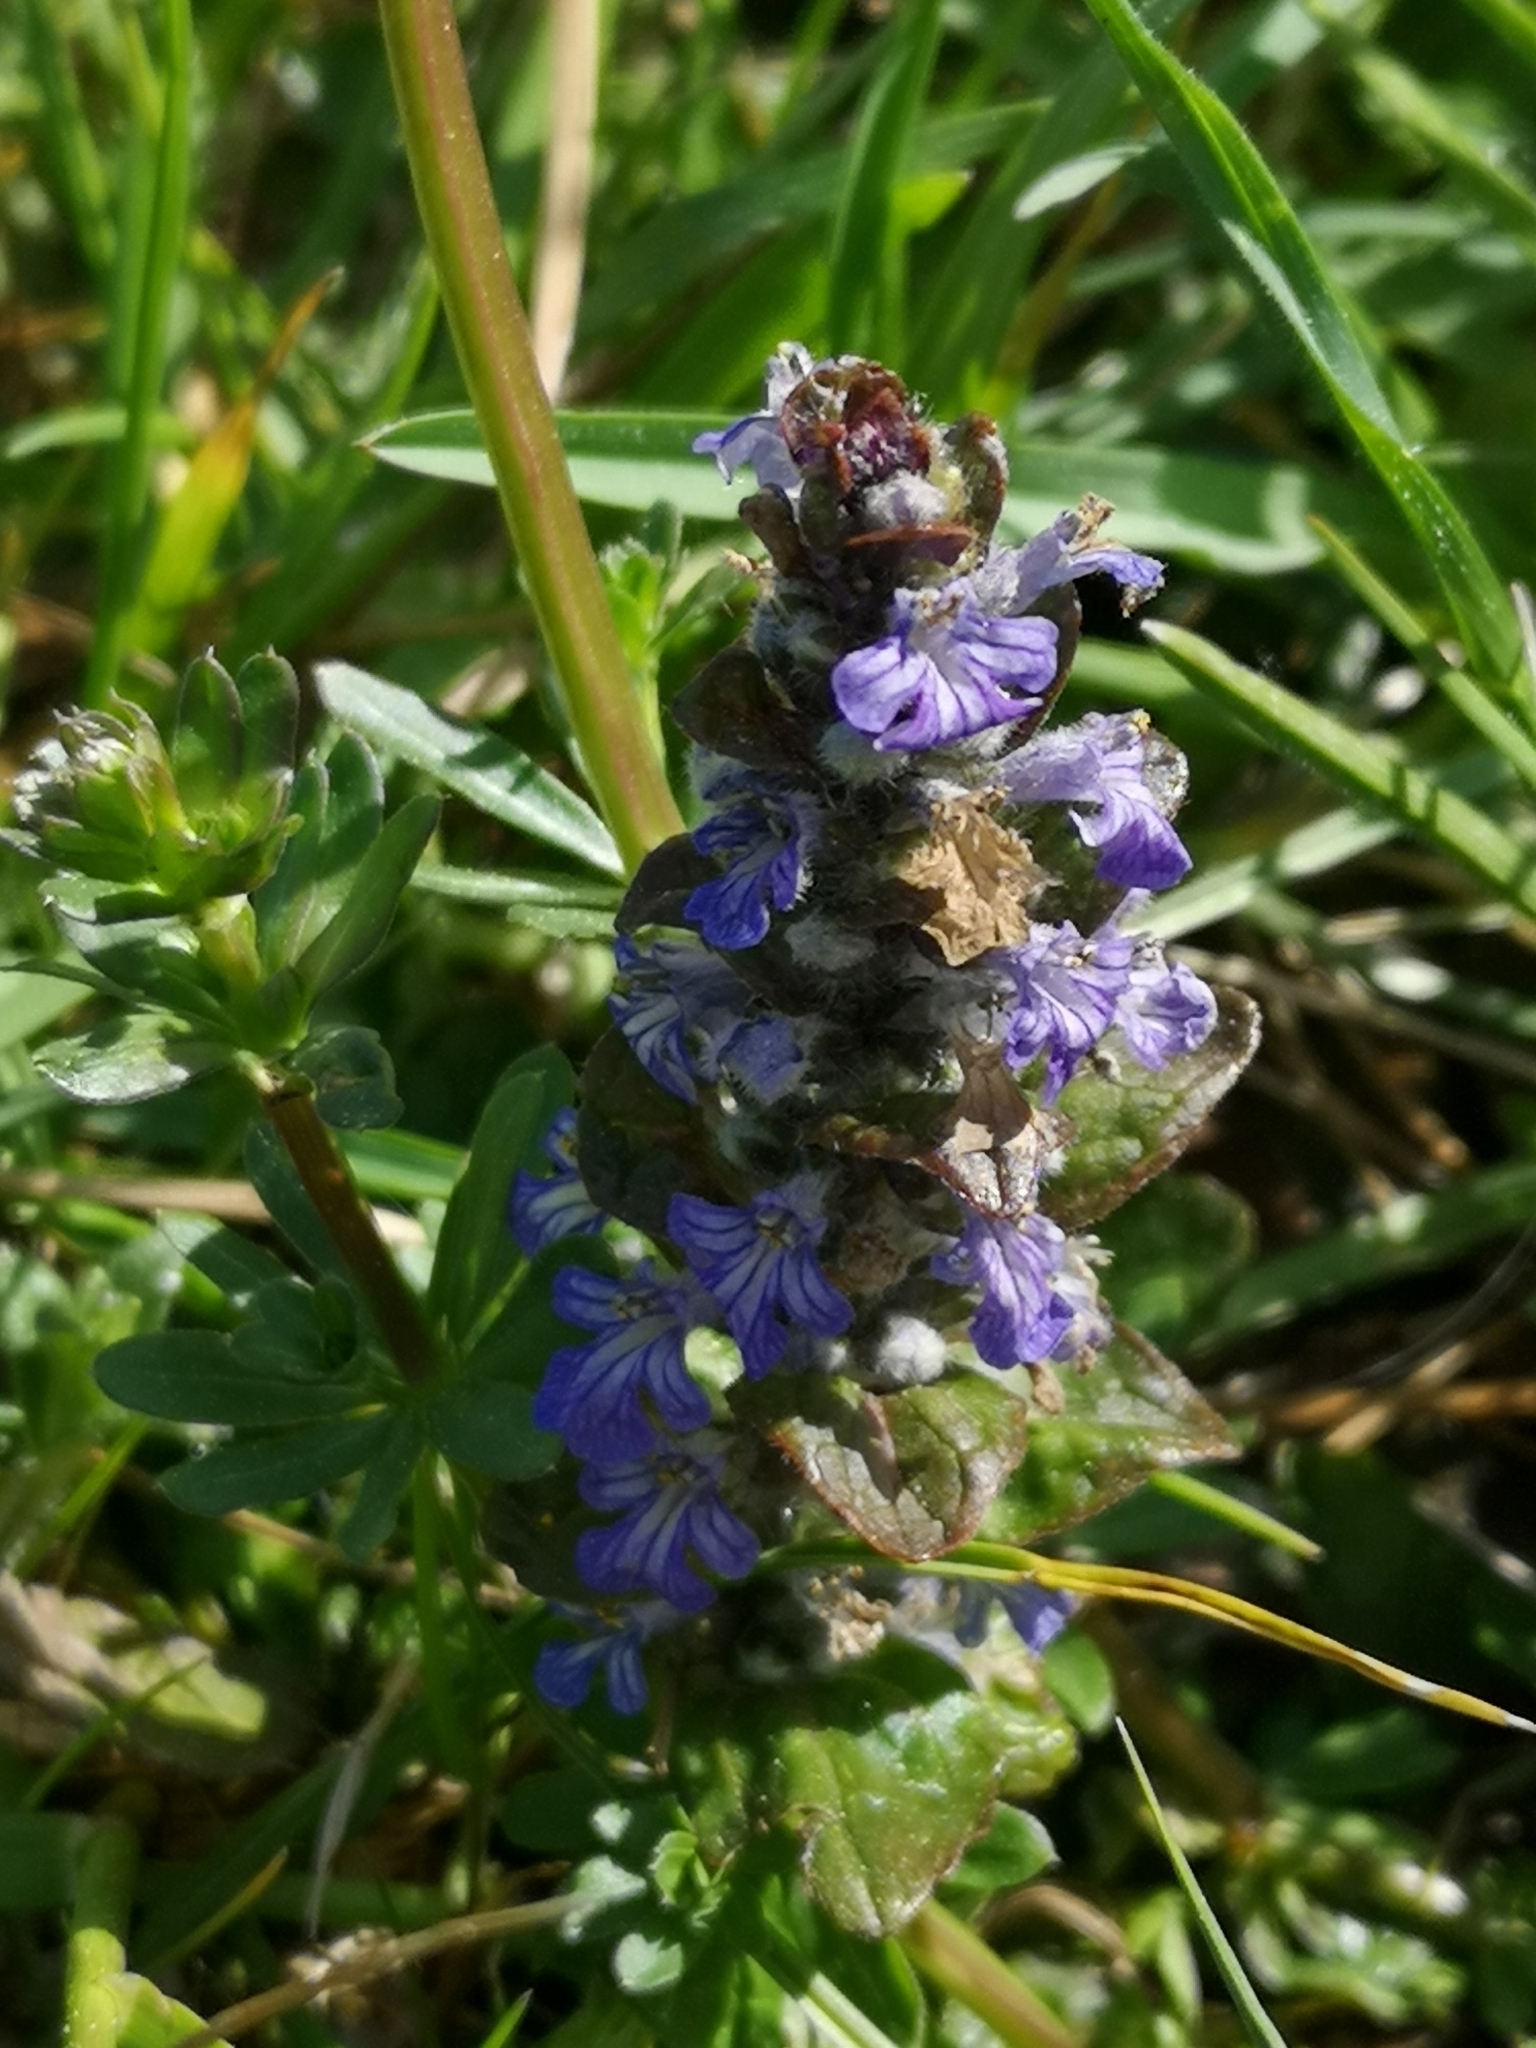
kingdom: Plantae
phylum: Tracheophyta
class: Magnoliopsida
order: Lamiales
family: Lamiaceae
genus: Ajuga
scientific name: Ajuga reptans
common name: Bugle
